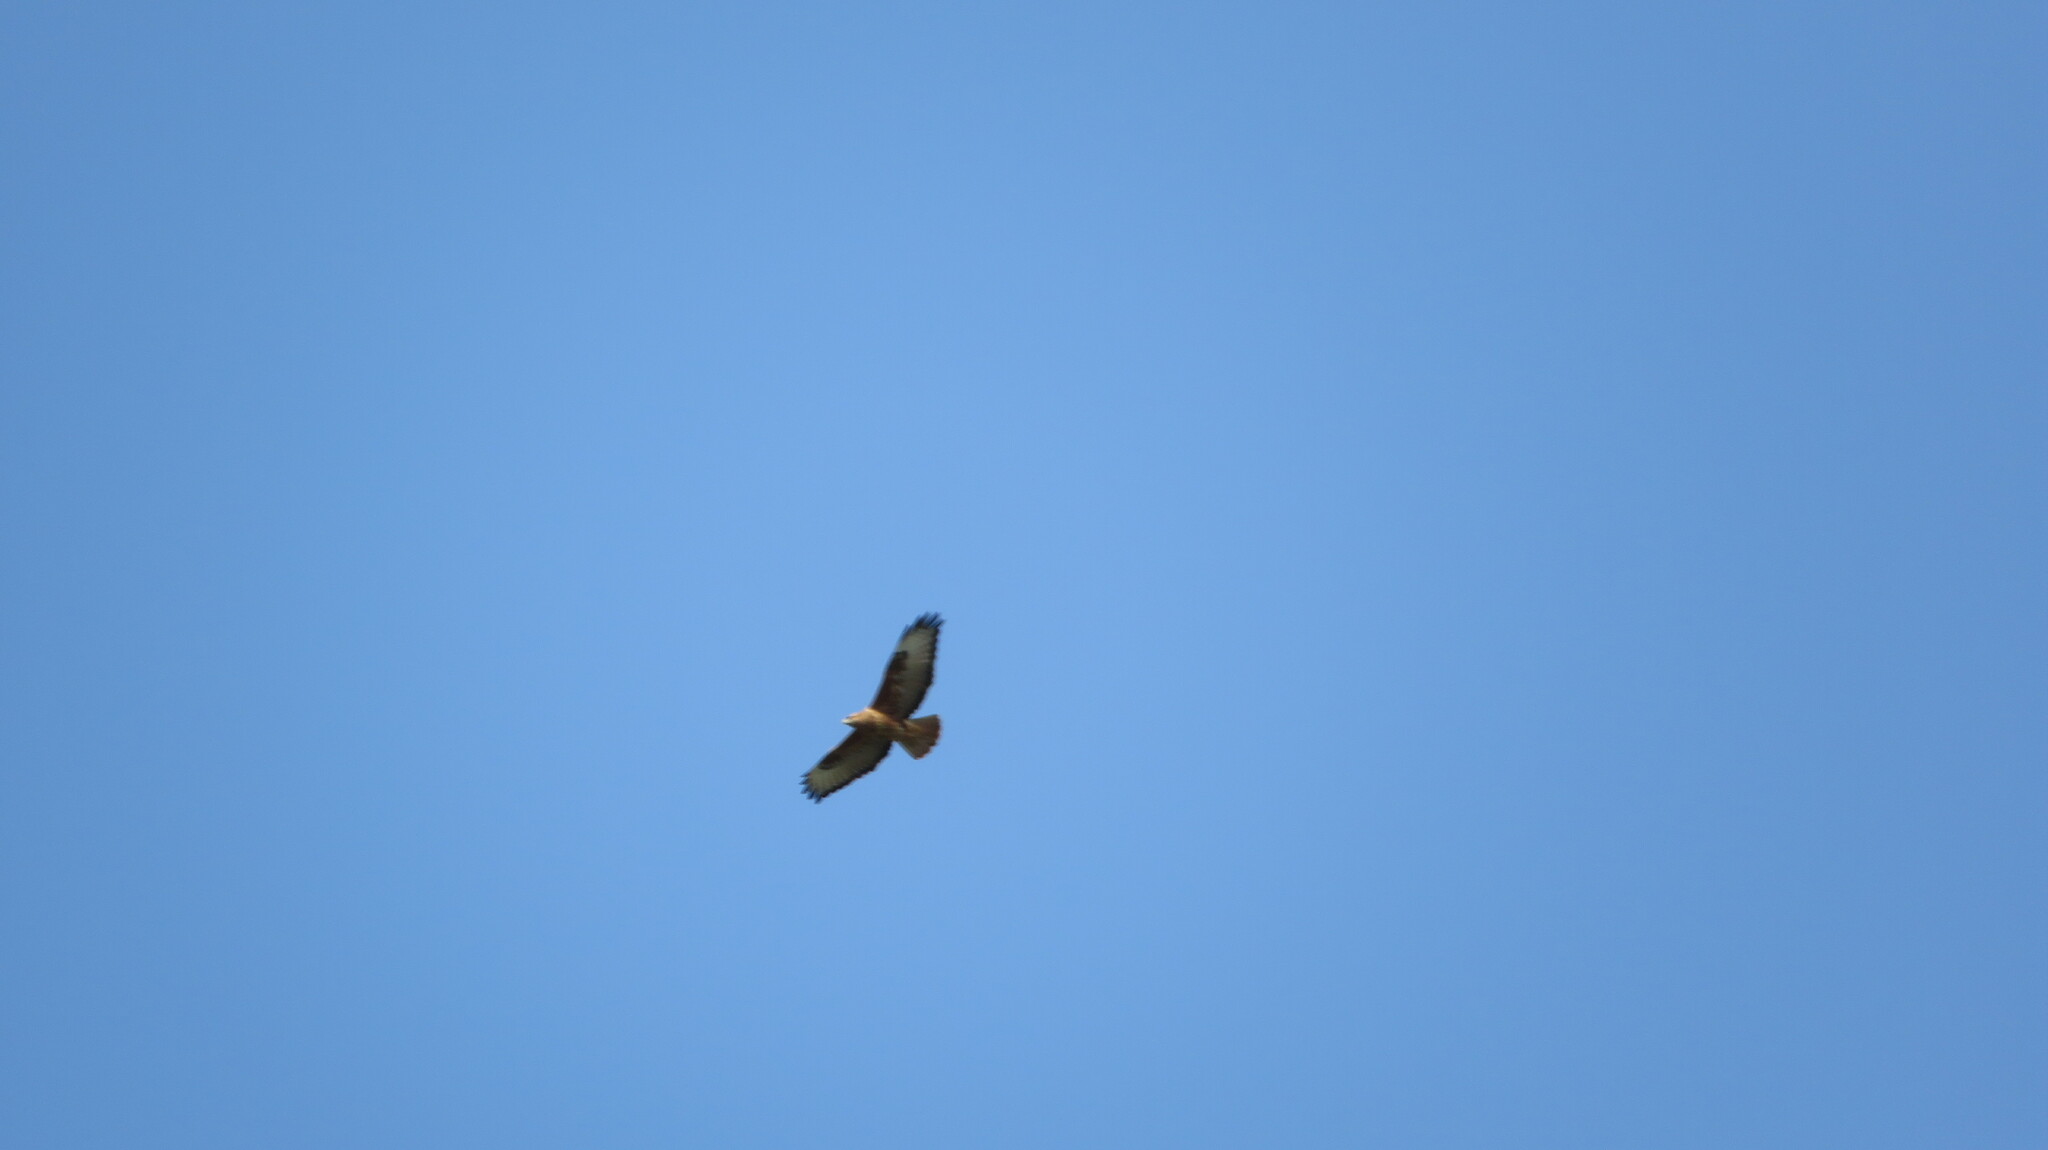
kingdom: Animalia
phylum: Chordata
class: Aves
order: Accipitriformes
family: Accipitridae
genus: Buteo
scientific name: Buteo buteo
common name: Common buzzard
